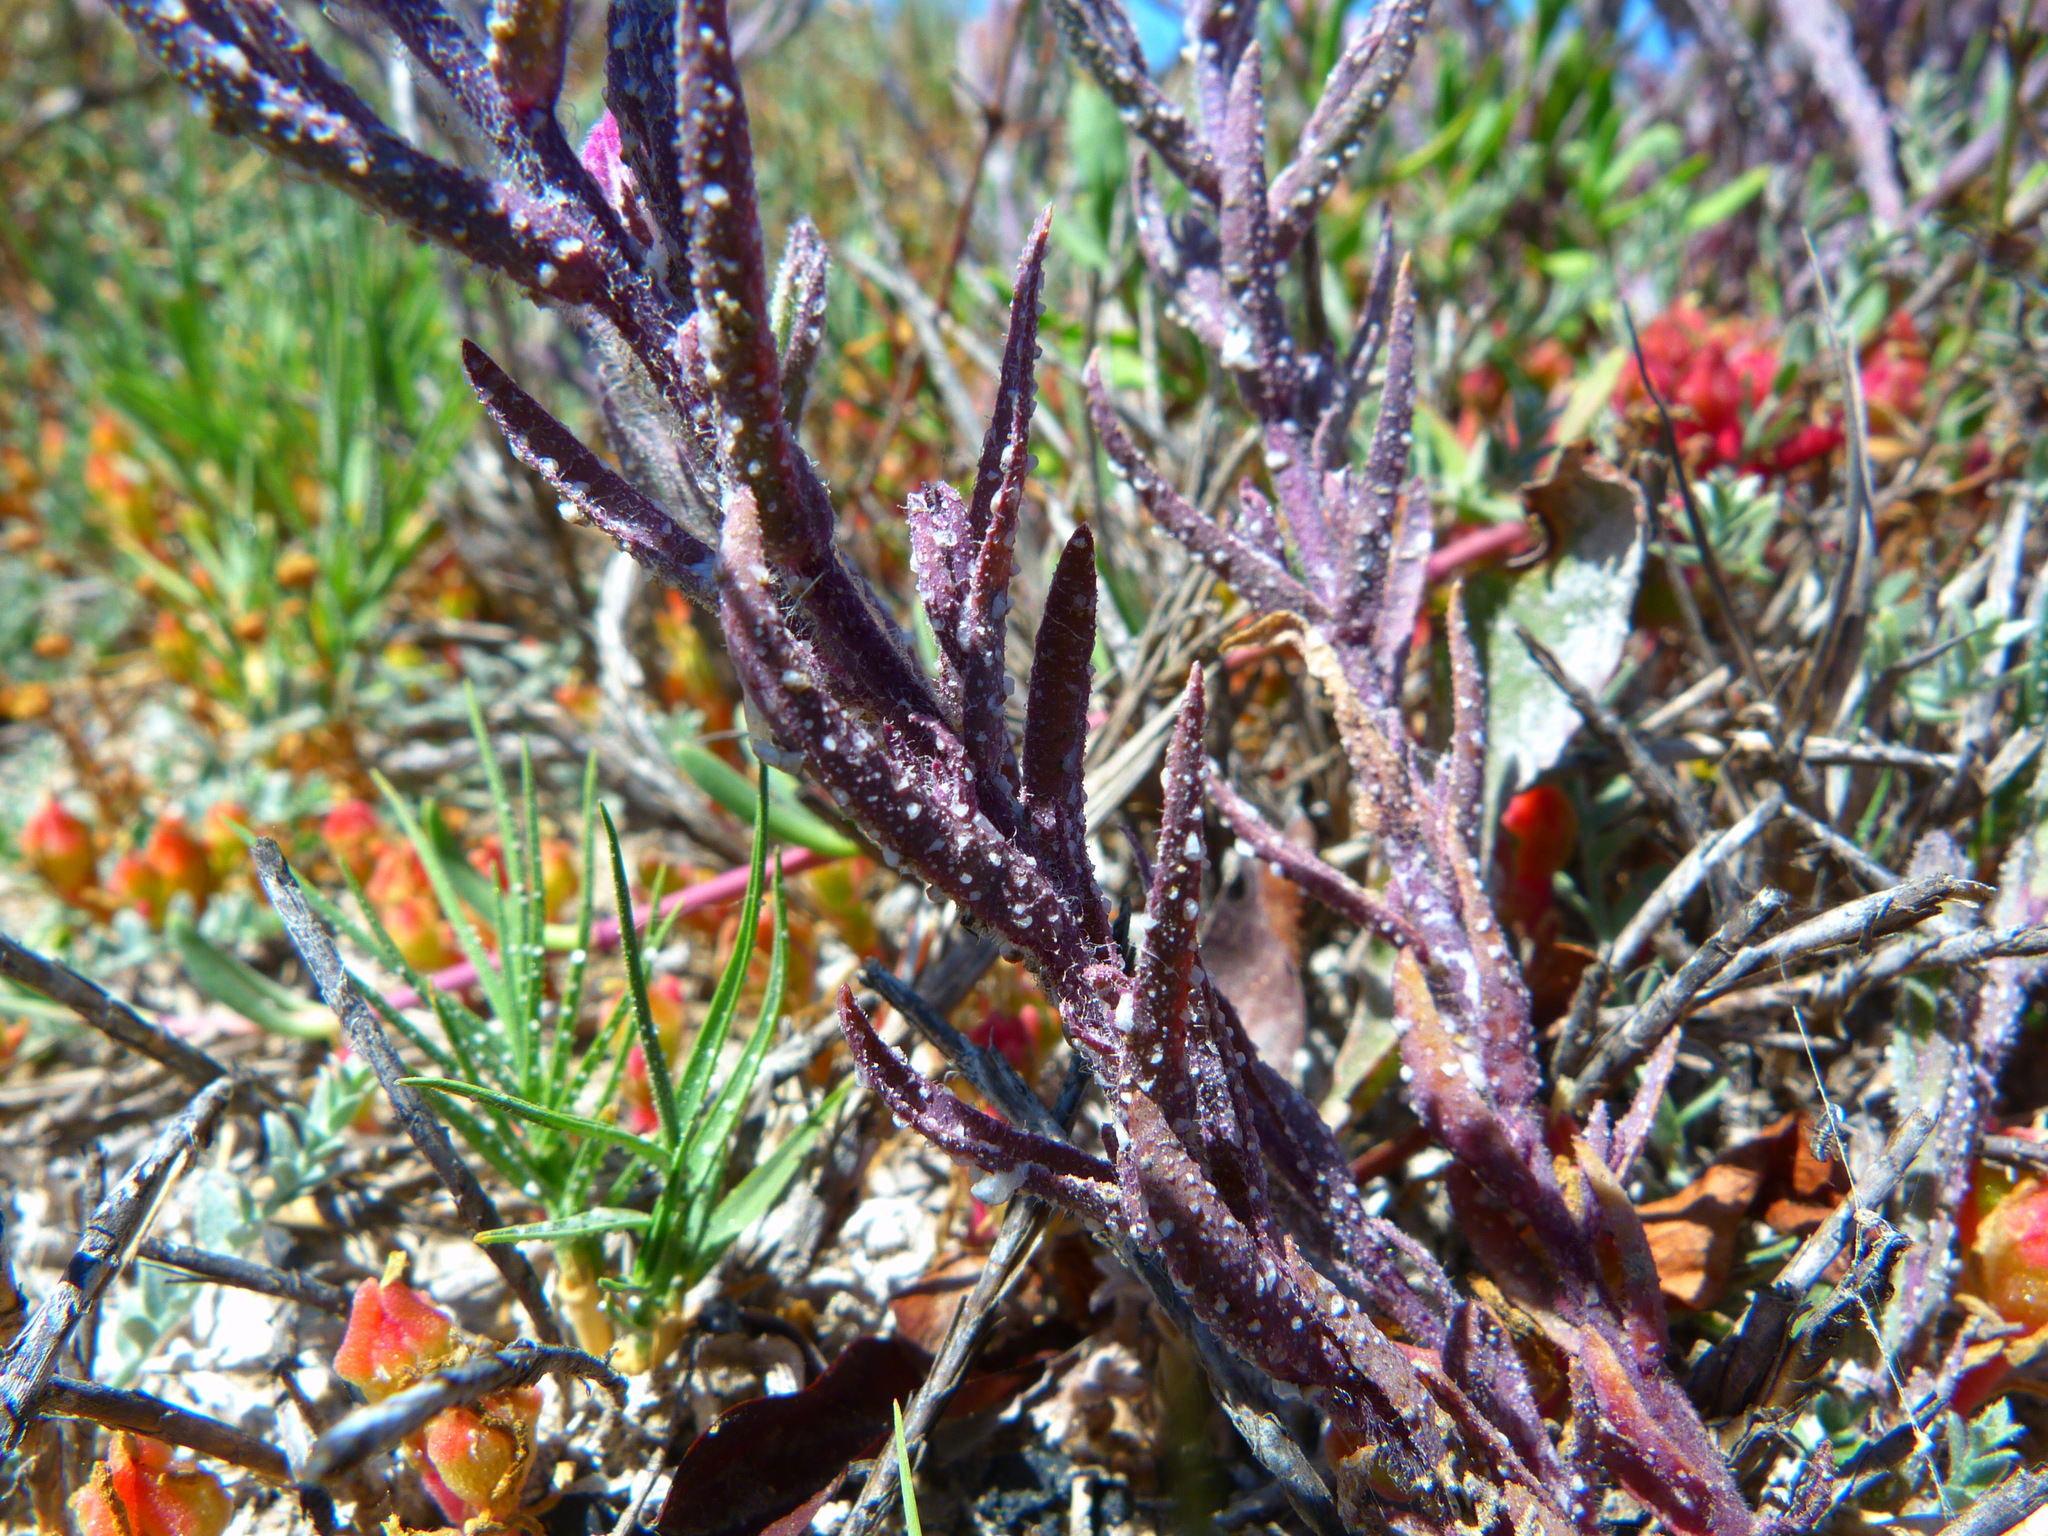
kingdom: Plantae
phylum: Tracheophyta
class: Magnoliopsida
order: Lamiales
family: Orobanchaceae
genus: Chloropyron
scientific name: Chloropyron maritimum
